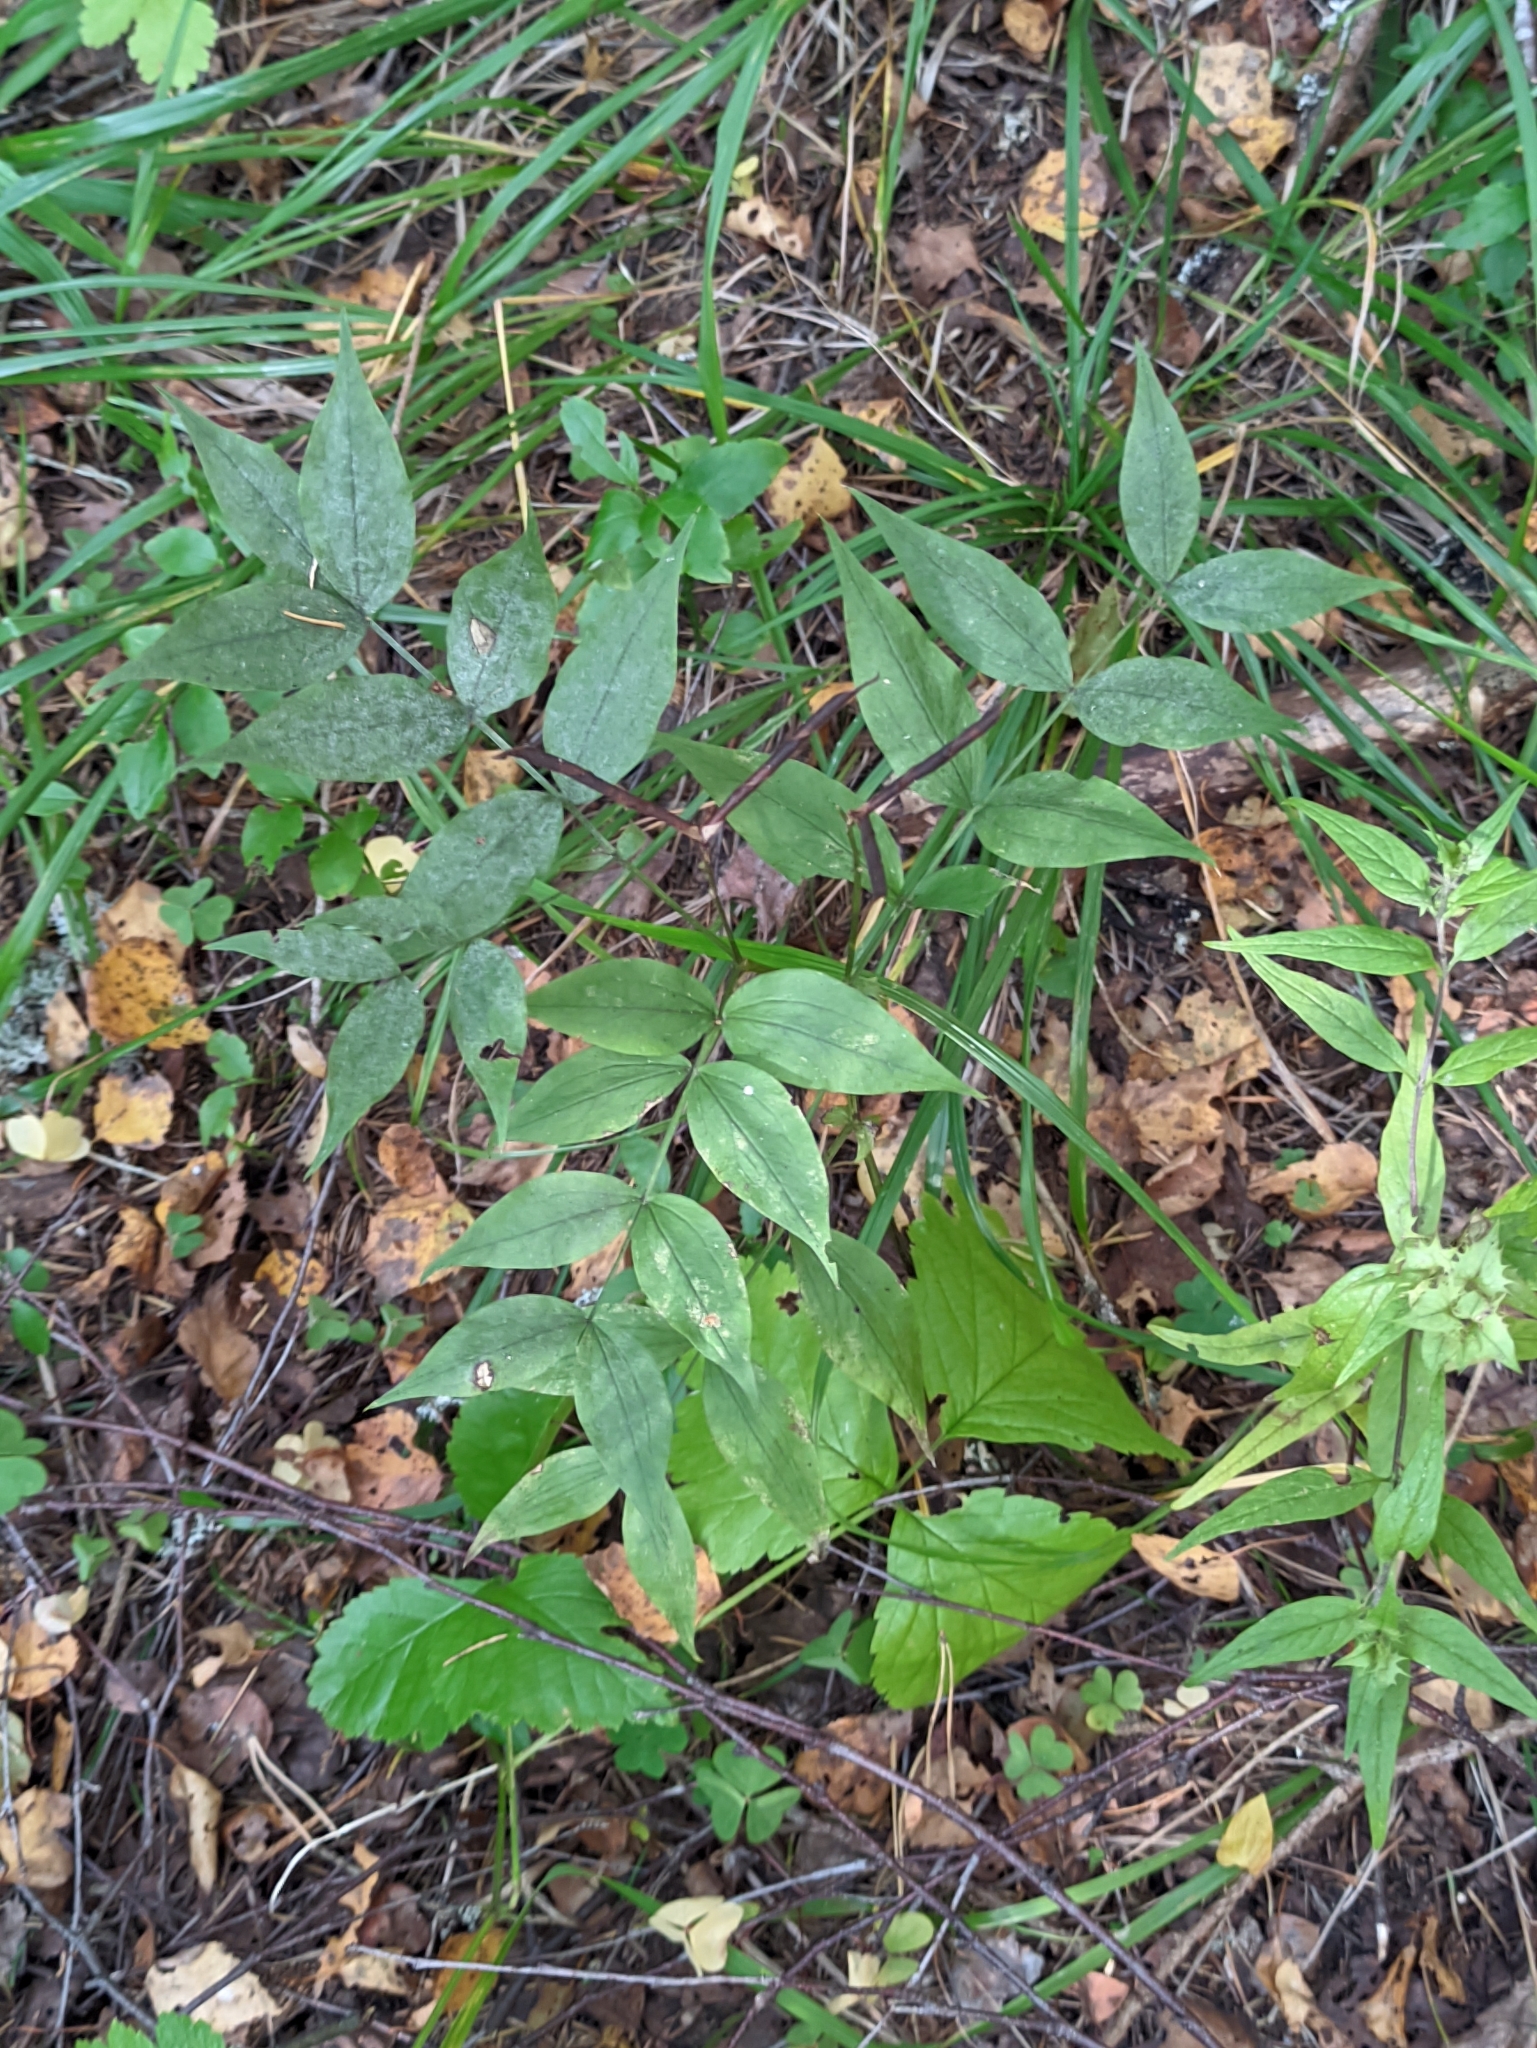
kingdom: Plantae
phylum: Tracheophyta
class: Magnoliopsida
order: Fabales
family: Fabaceae
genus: Lathyrus
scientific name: Lathyrus vernus
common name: Spring pea
